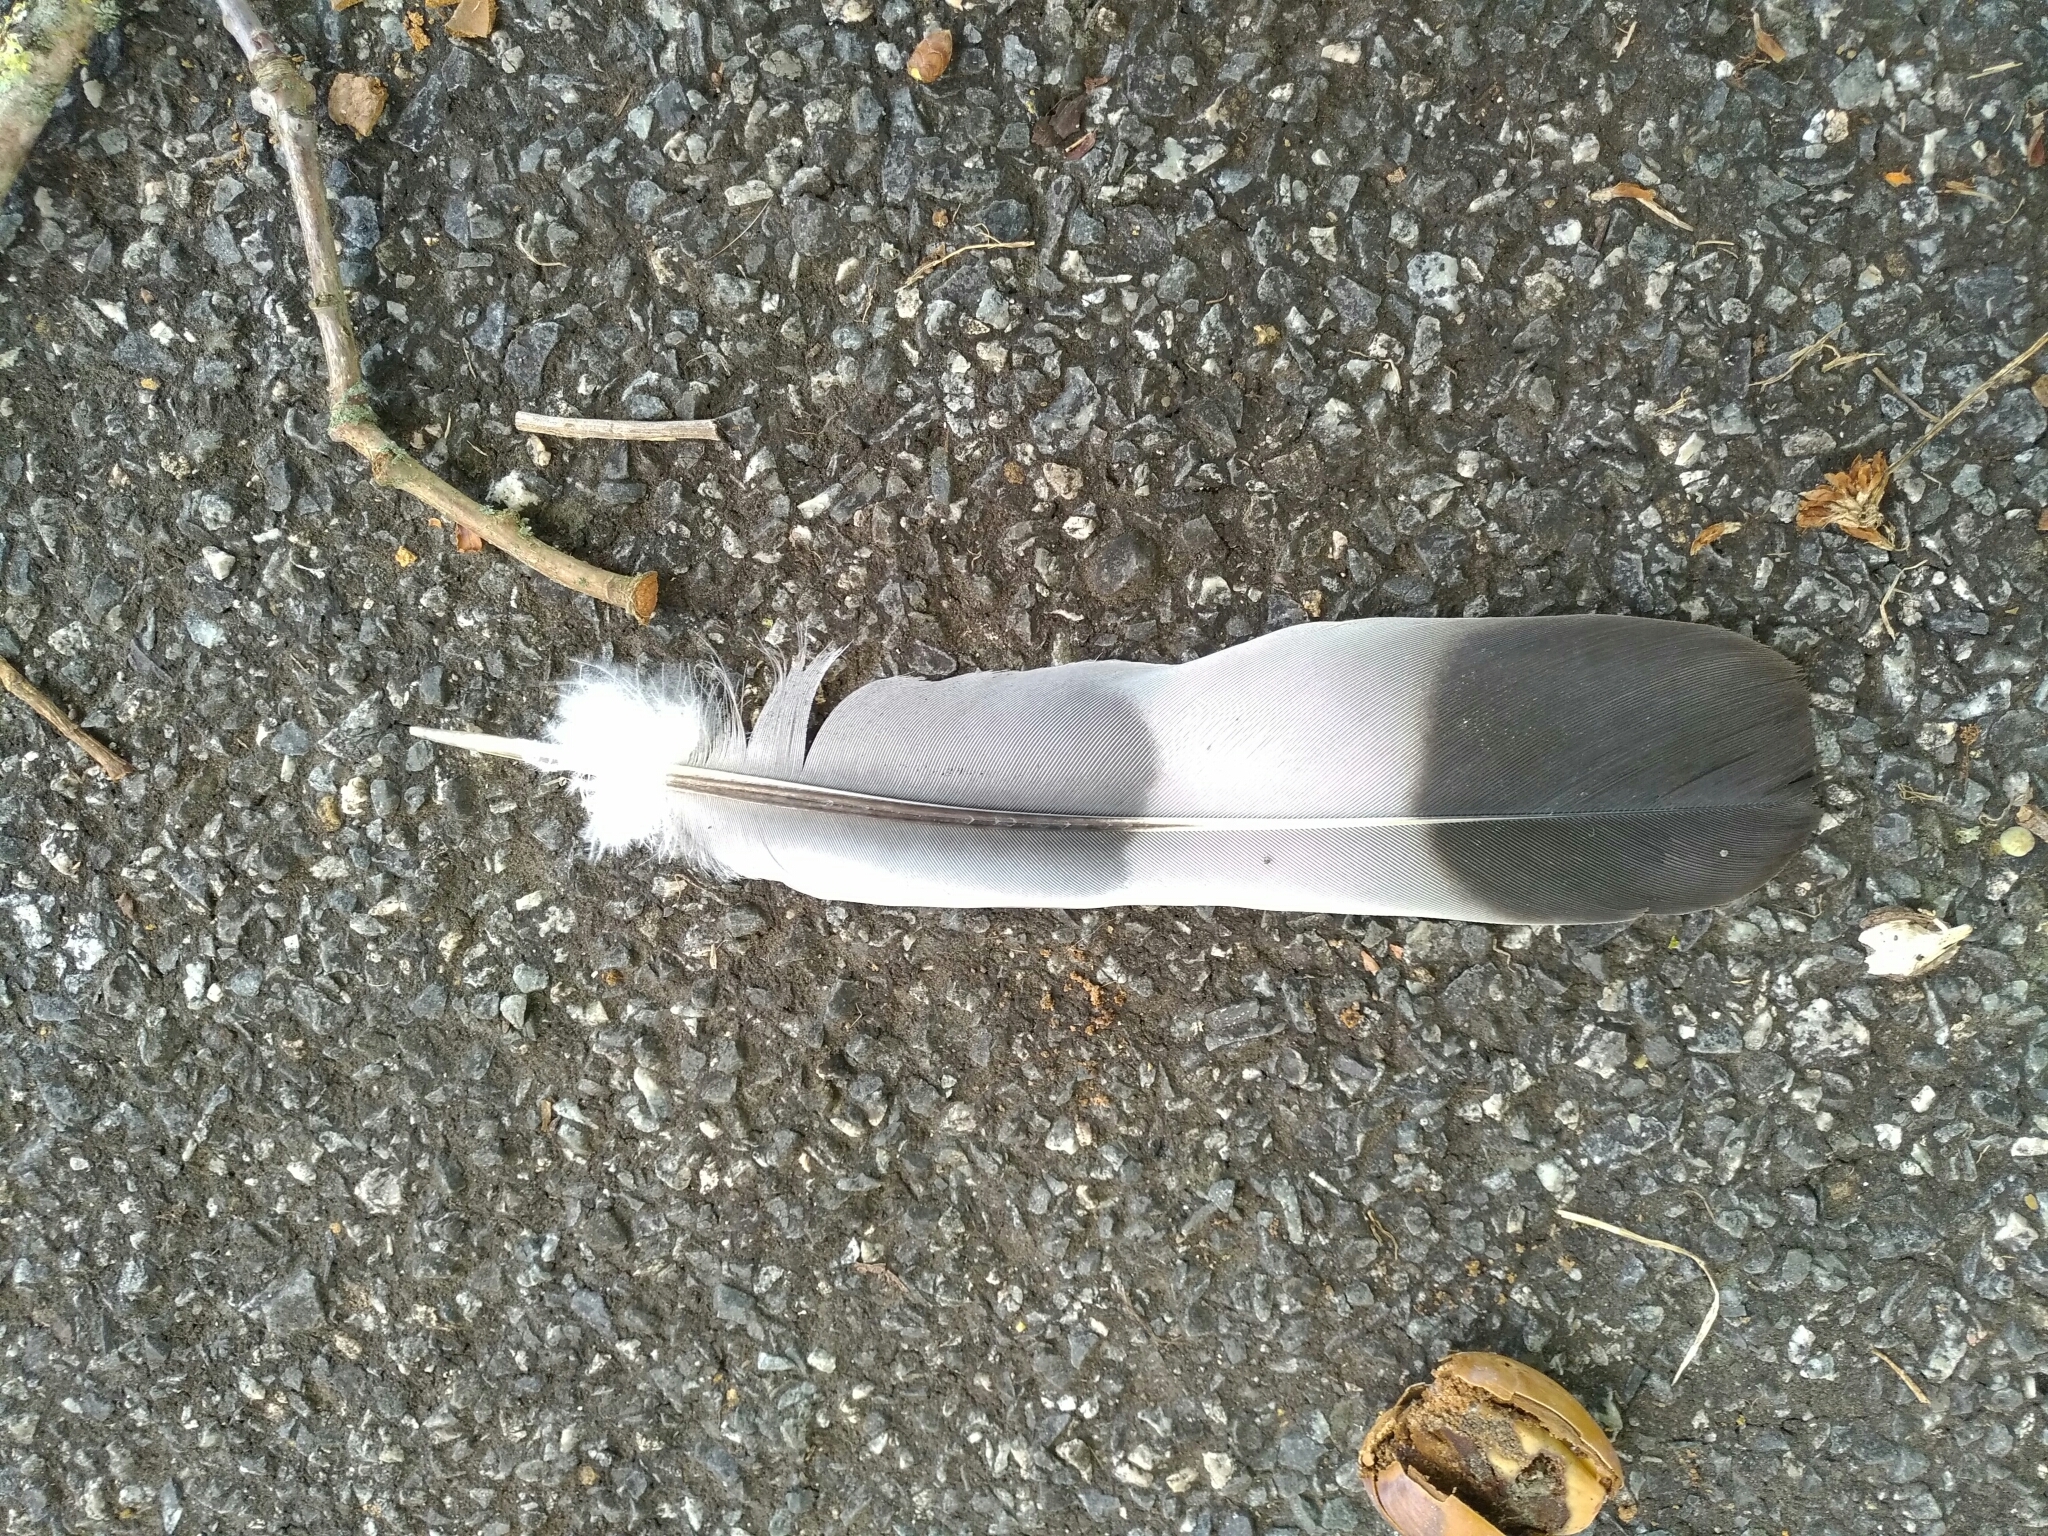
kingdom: Animalia
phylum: Chordata
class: Aves
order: Columbiformes
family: Columbidae
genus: Columba
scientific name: Columba palumbus
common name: Common wood pigeon
